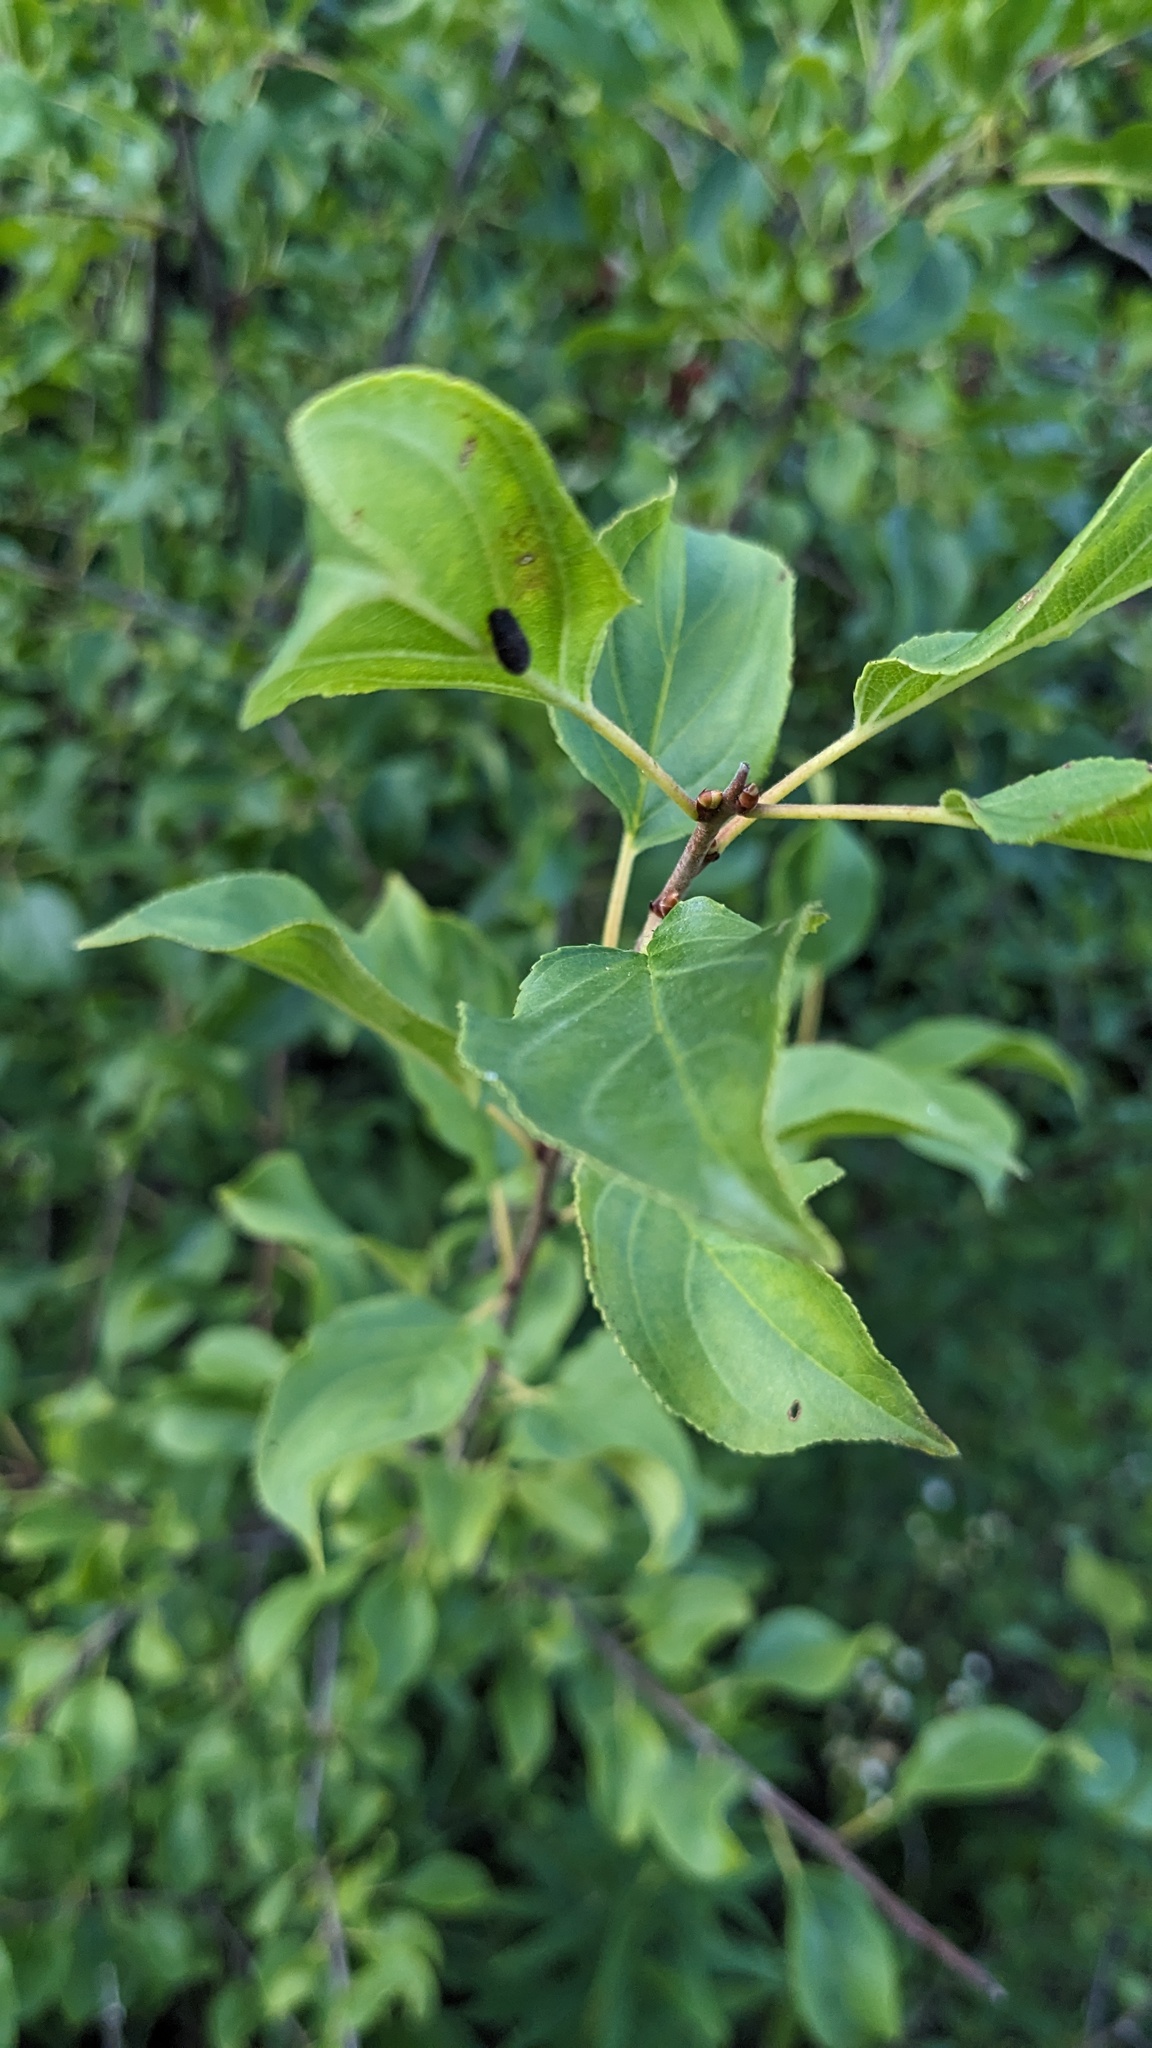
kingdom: Plantae
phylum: Tracheophyta
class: Magnoliopsida
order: Rosales
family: Rhamnaceae
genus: Rhamnus
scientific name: Rhamnus cathartica
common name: Common buckthorn
